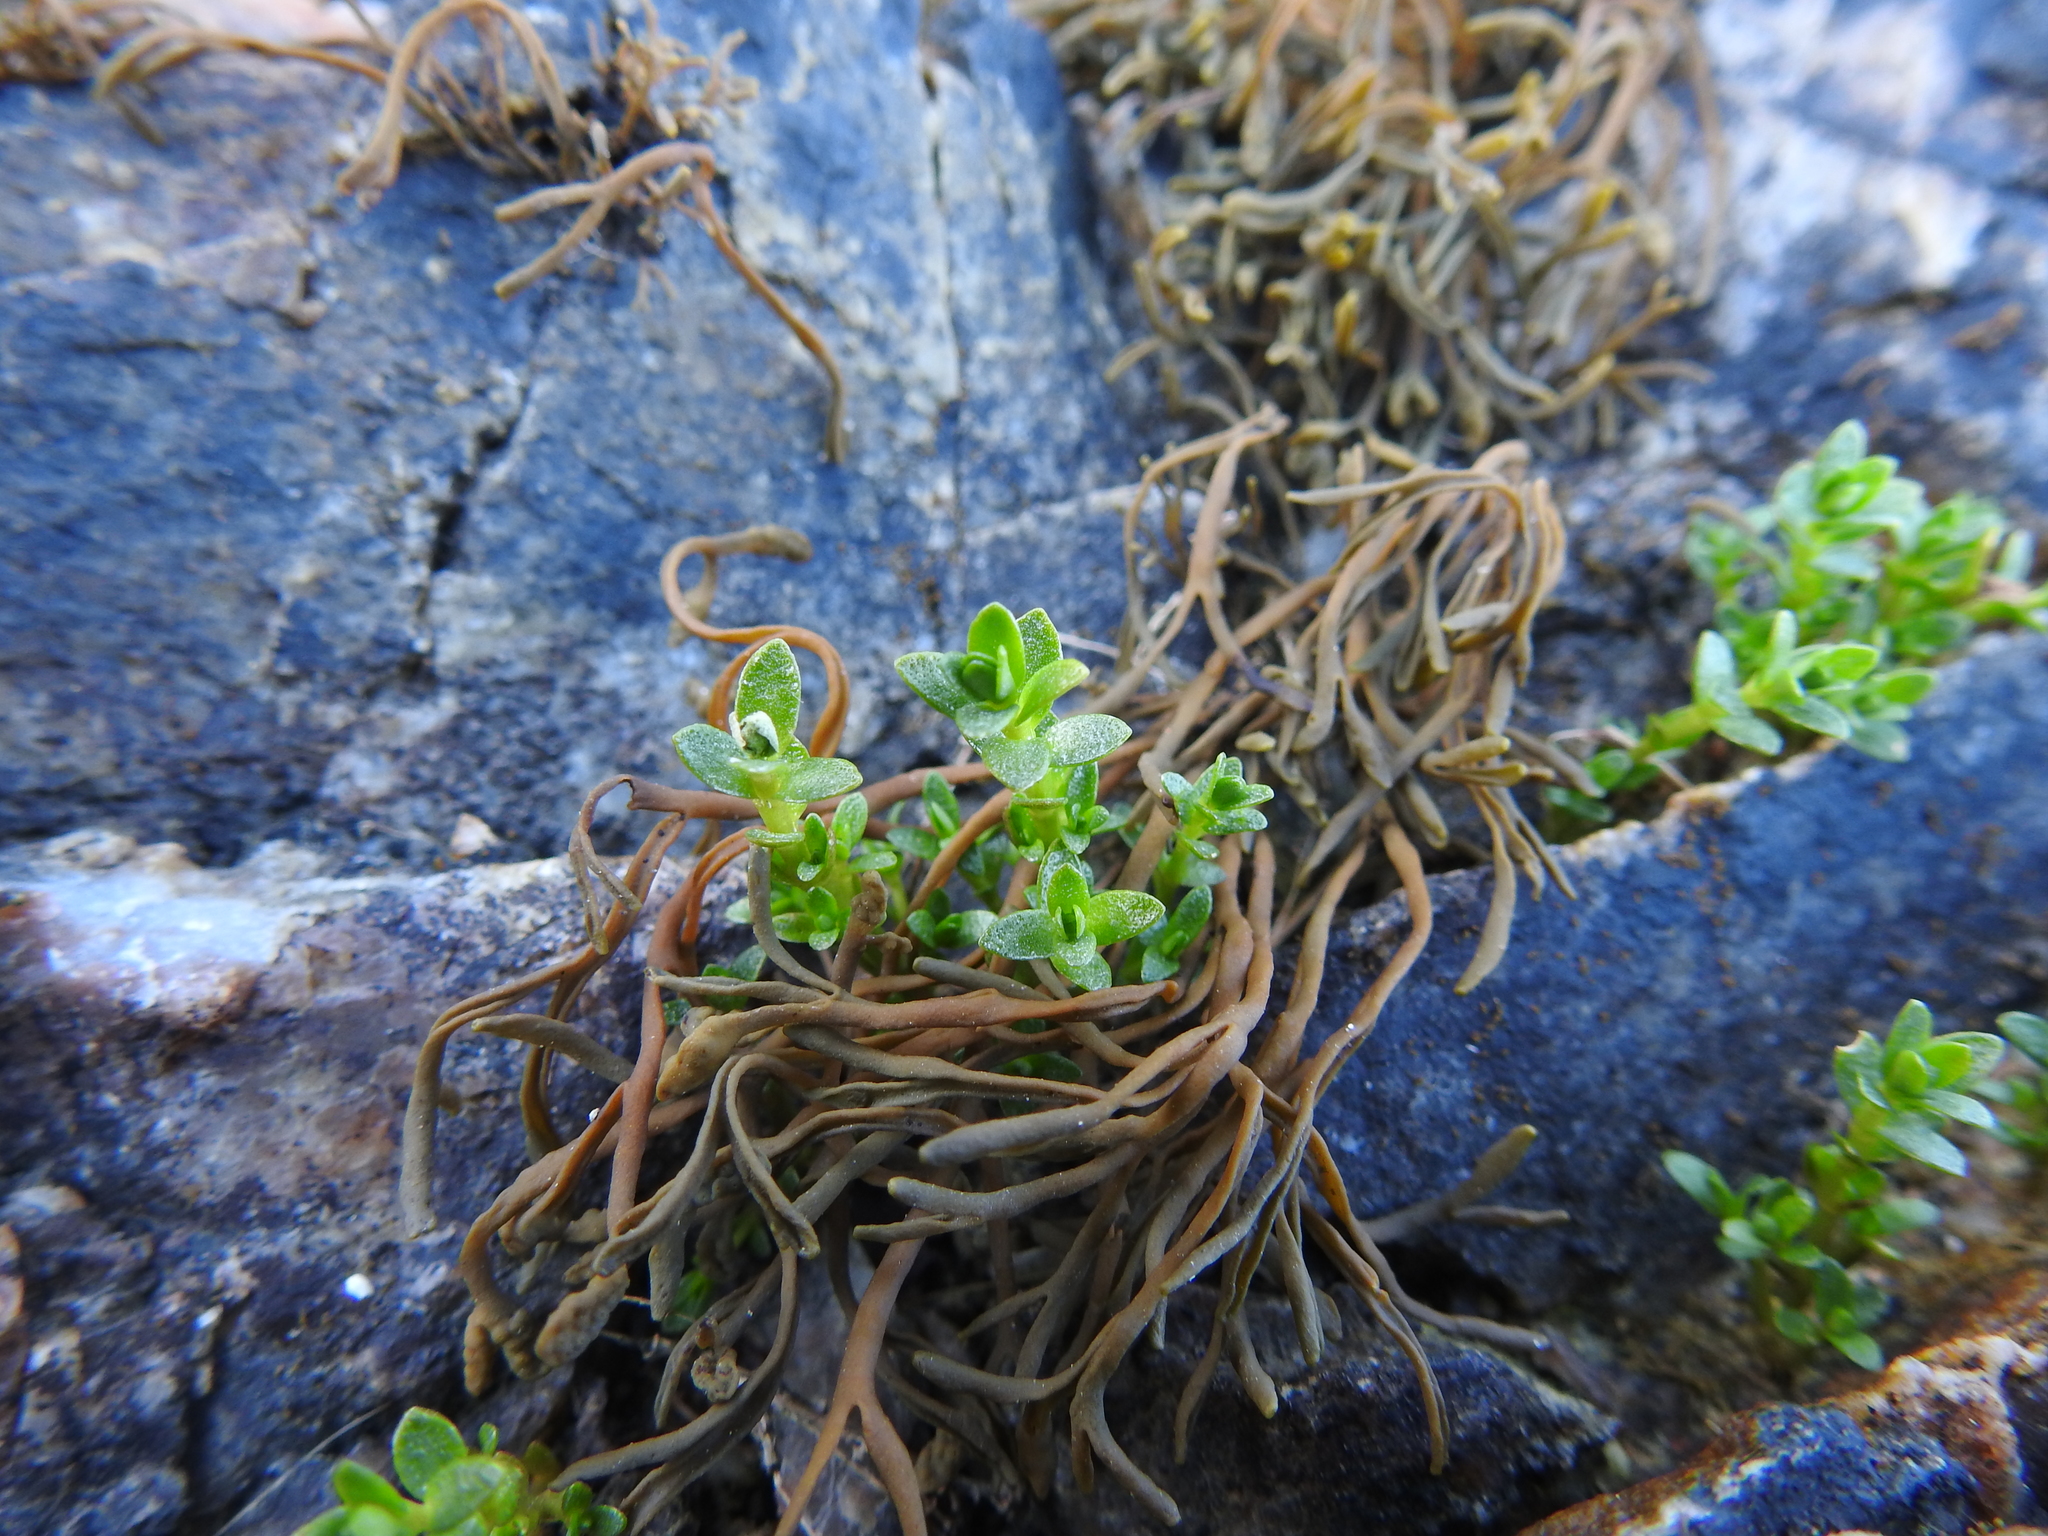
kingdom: Plantae
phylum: Tracheophyta
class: Magnoliopsida
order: Ericales
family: Primulaceae
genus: Lysimachia
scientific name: Lysimachia maritima
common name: Sea milkwort
